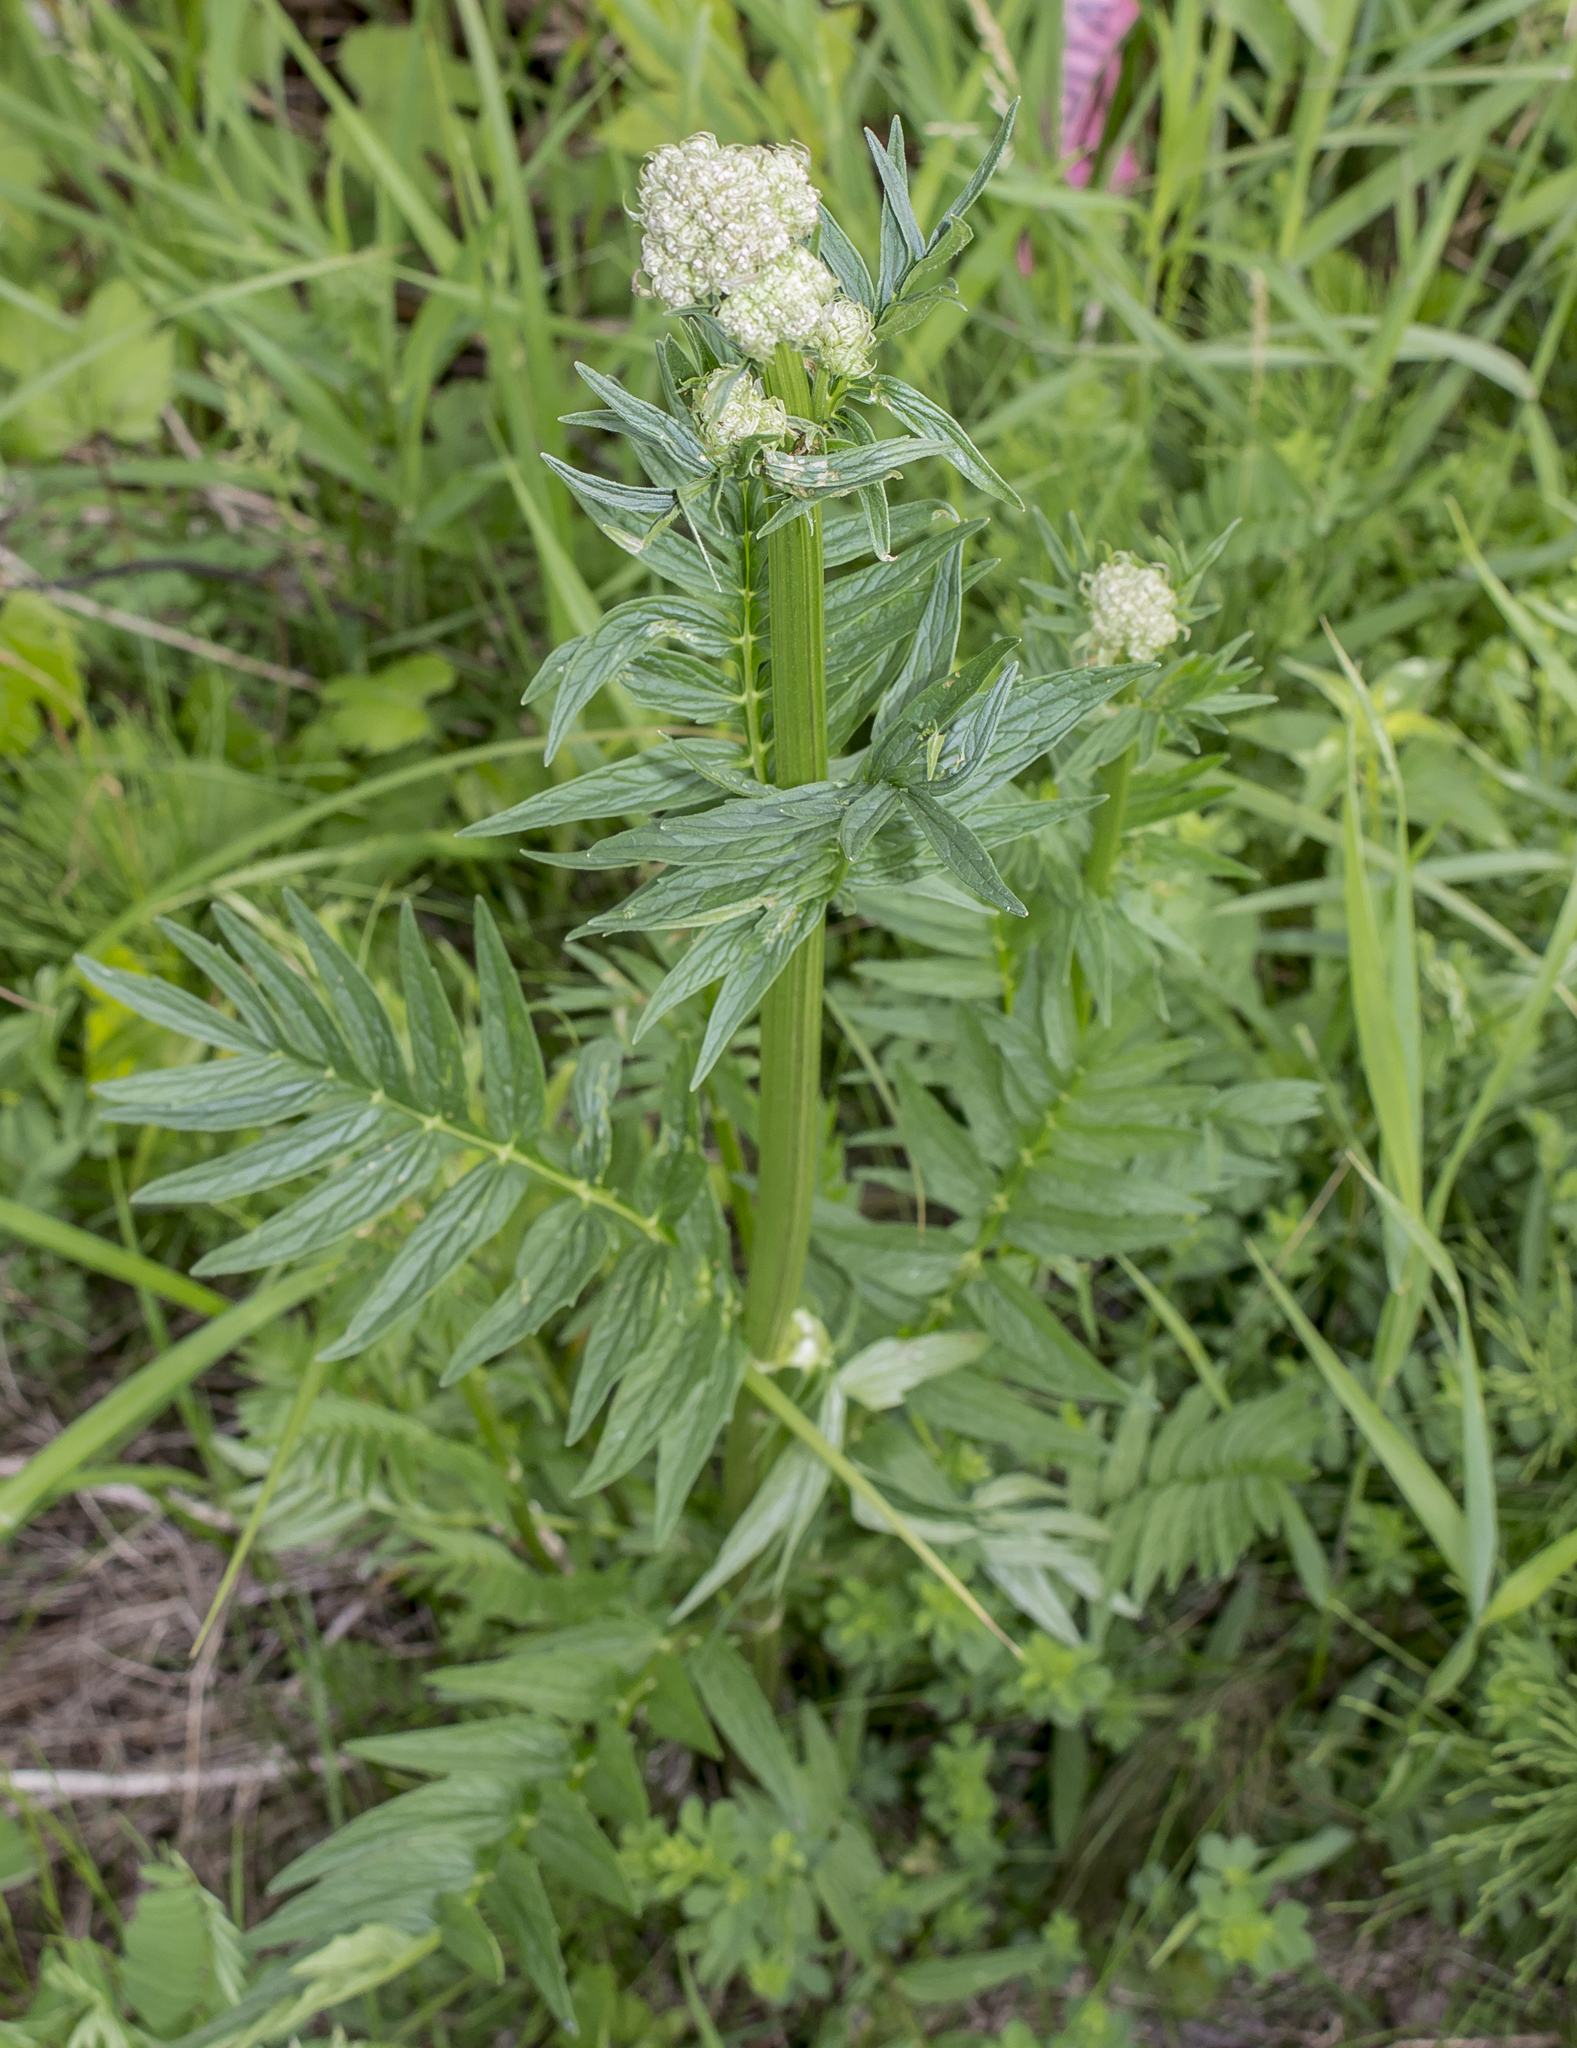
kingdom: Plantae
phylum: Tracheophyta
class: Magnoliopsida
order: Dipsacales
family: Caprifoliaceae
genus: Valeriana
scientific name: Valeriana officinalis
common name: Common valerian
